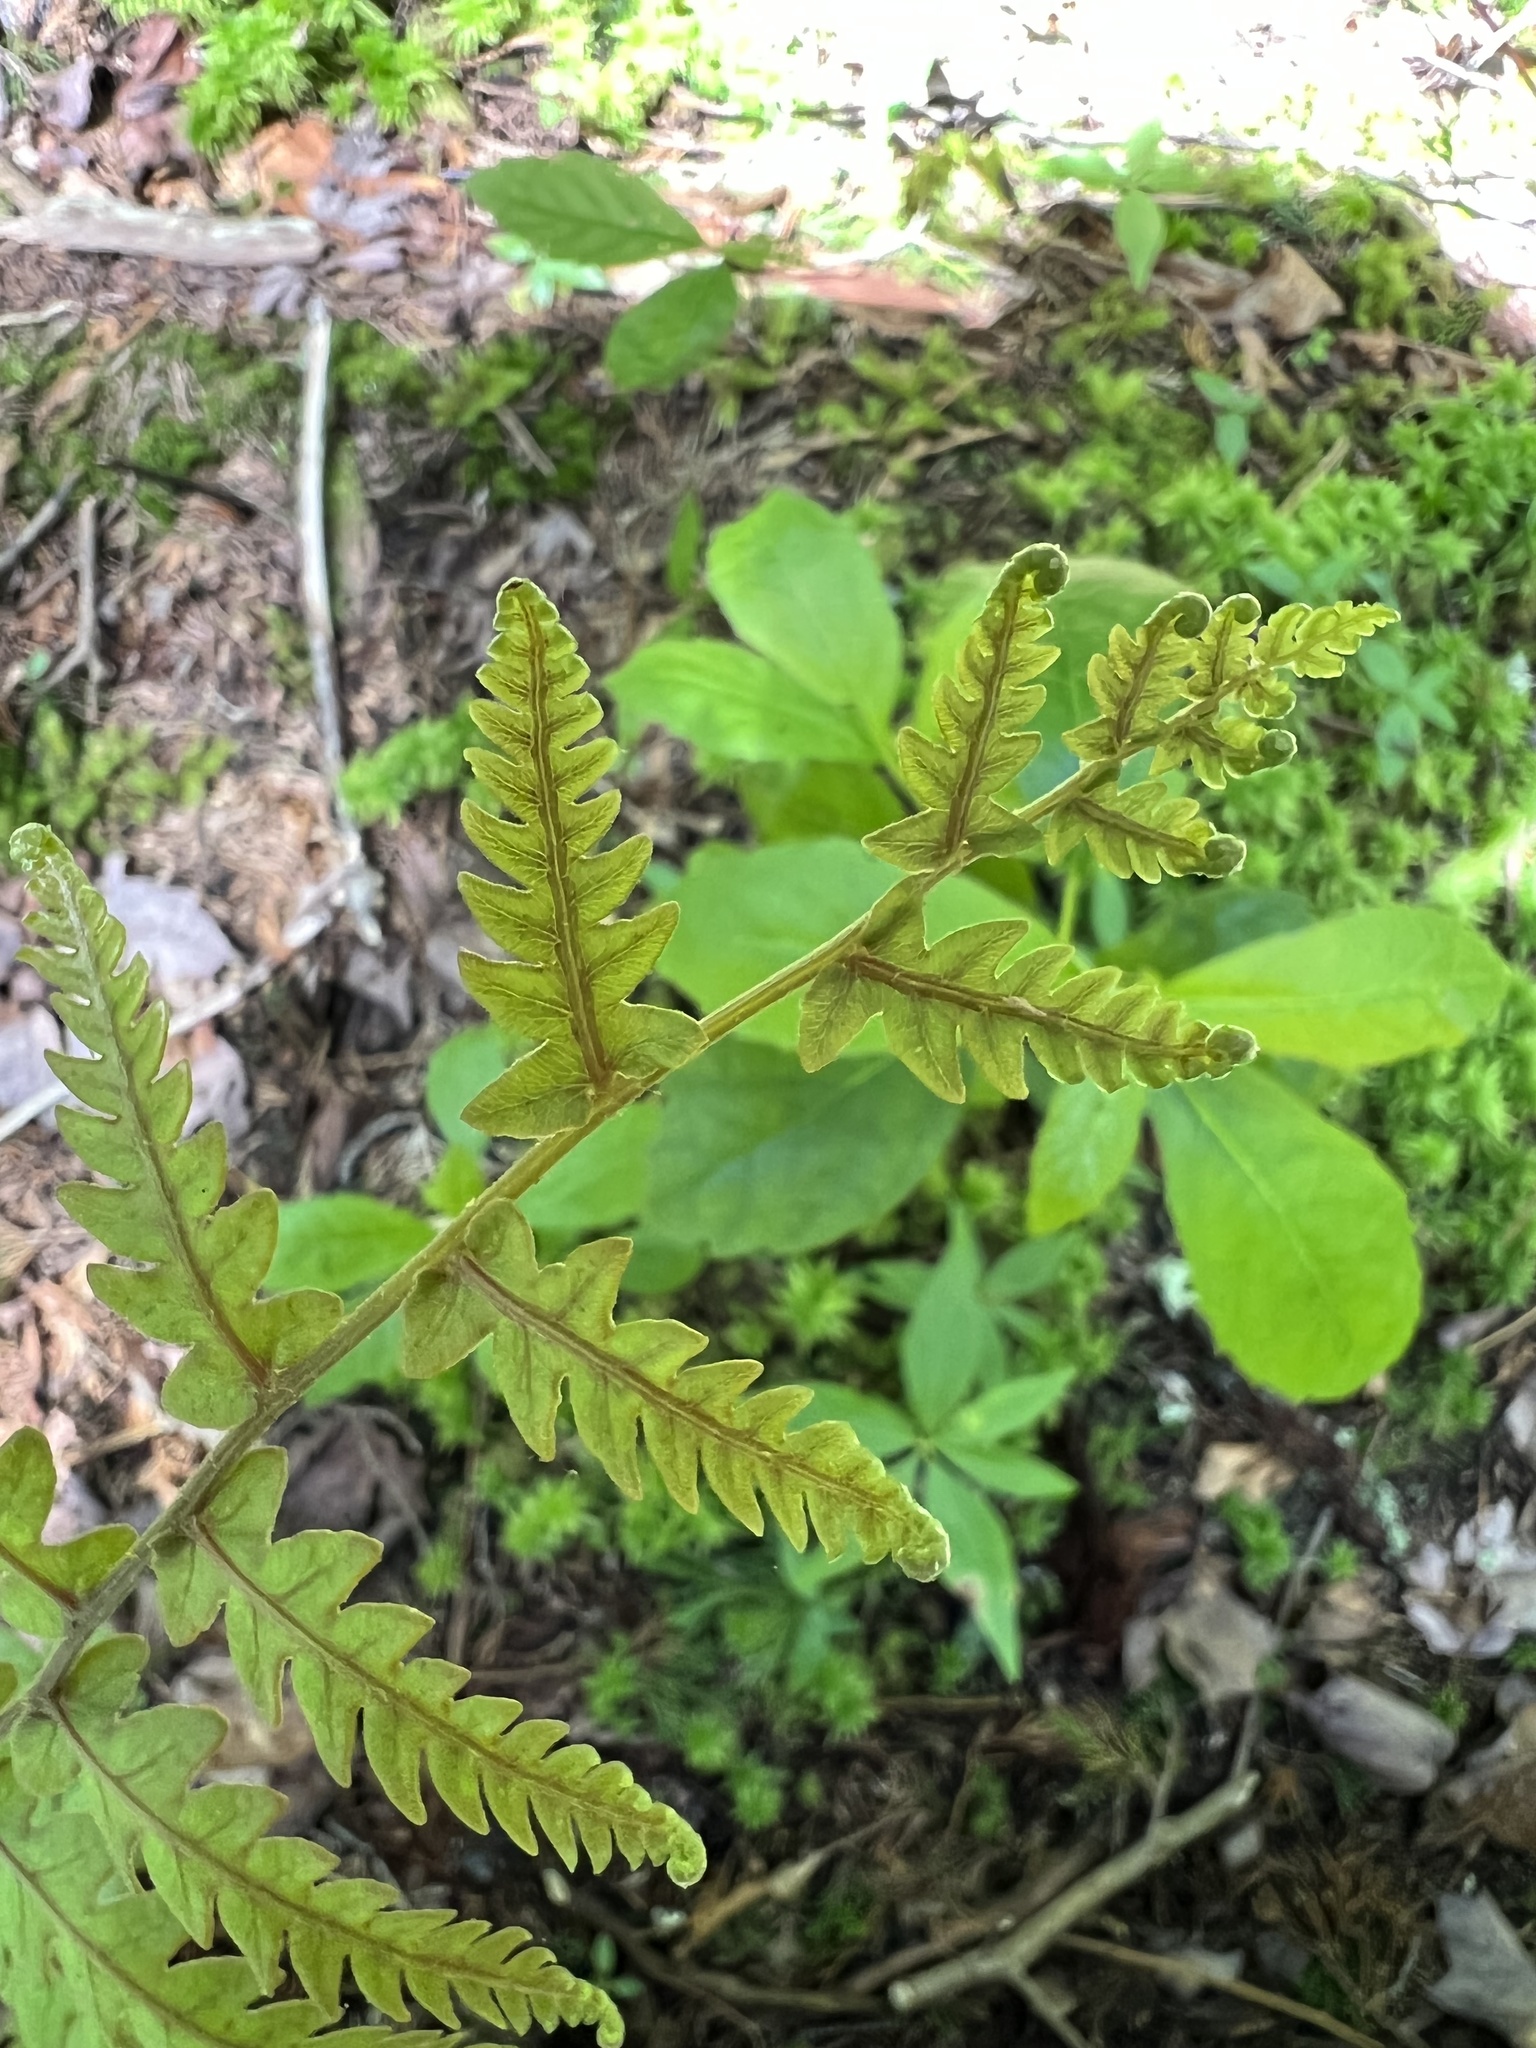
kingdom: Plantae
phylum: Tracheophyta
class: Polypodiopsida
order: Polypodiales
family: Blechnaceae
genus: Anchistea
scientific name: Anchistea virginica
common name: Virginia chain fern
